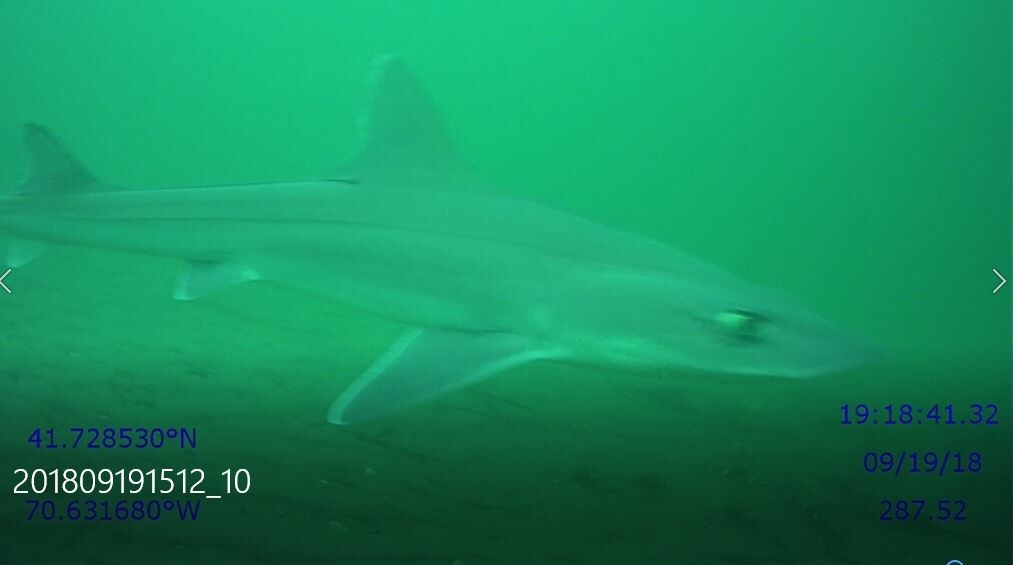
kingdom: Animalia
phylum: Chordata
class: Elasmobranchii
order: Carcharhiniformes
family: Triakidae
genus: Mustelus
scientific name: Mustelus canis
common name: Smooth dogfish
